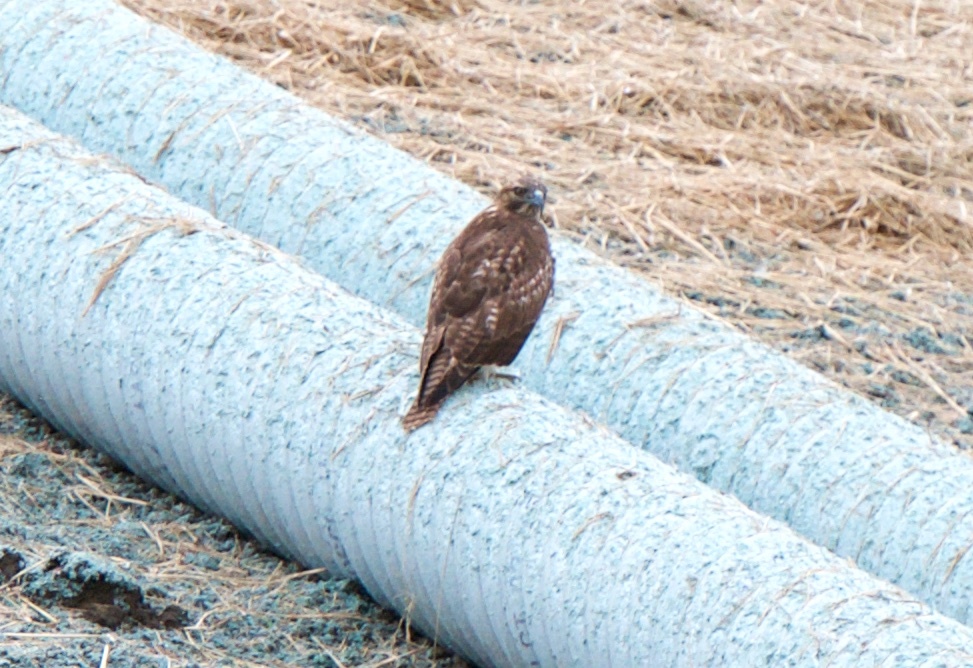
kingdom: Animalia
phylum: Chordata
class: Aves
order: Accipitriformes
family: Accipitridae
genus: Buteo
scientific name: Buteo jamaicensis
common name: Red-tailed hawk
